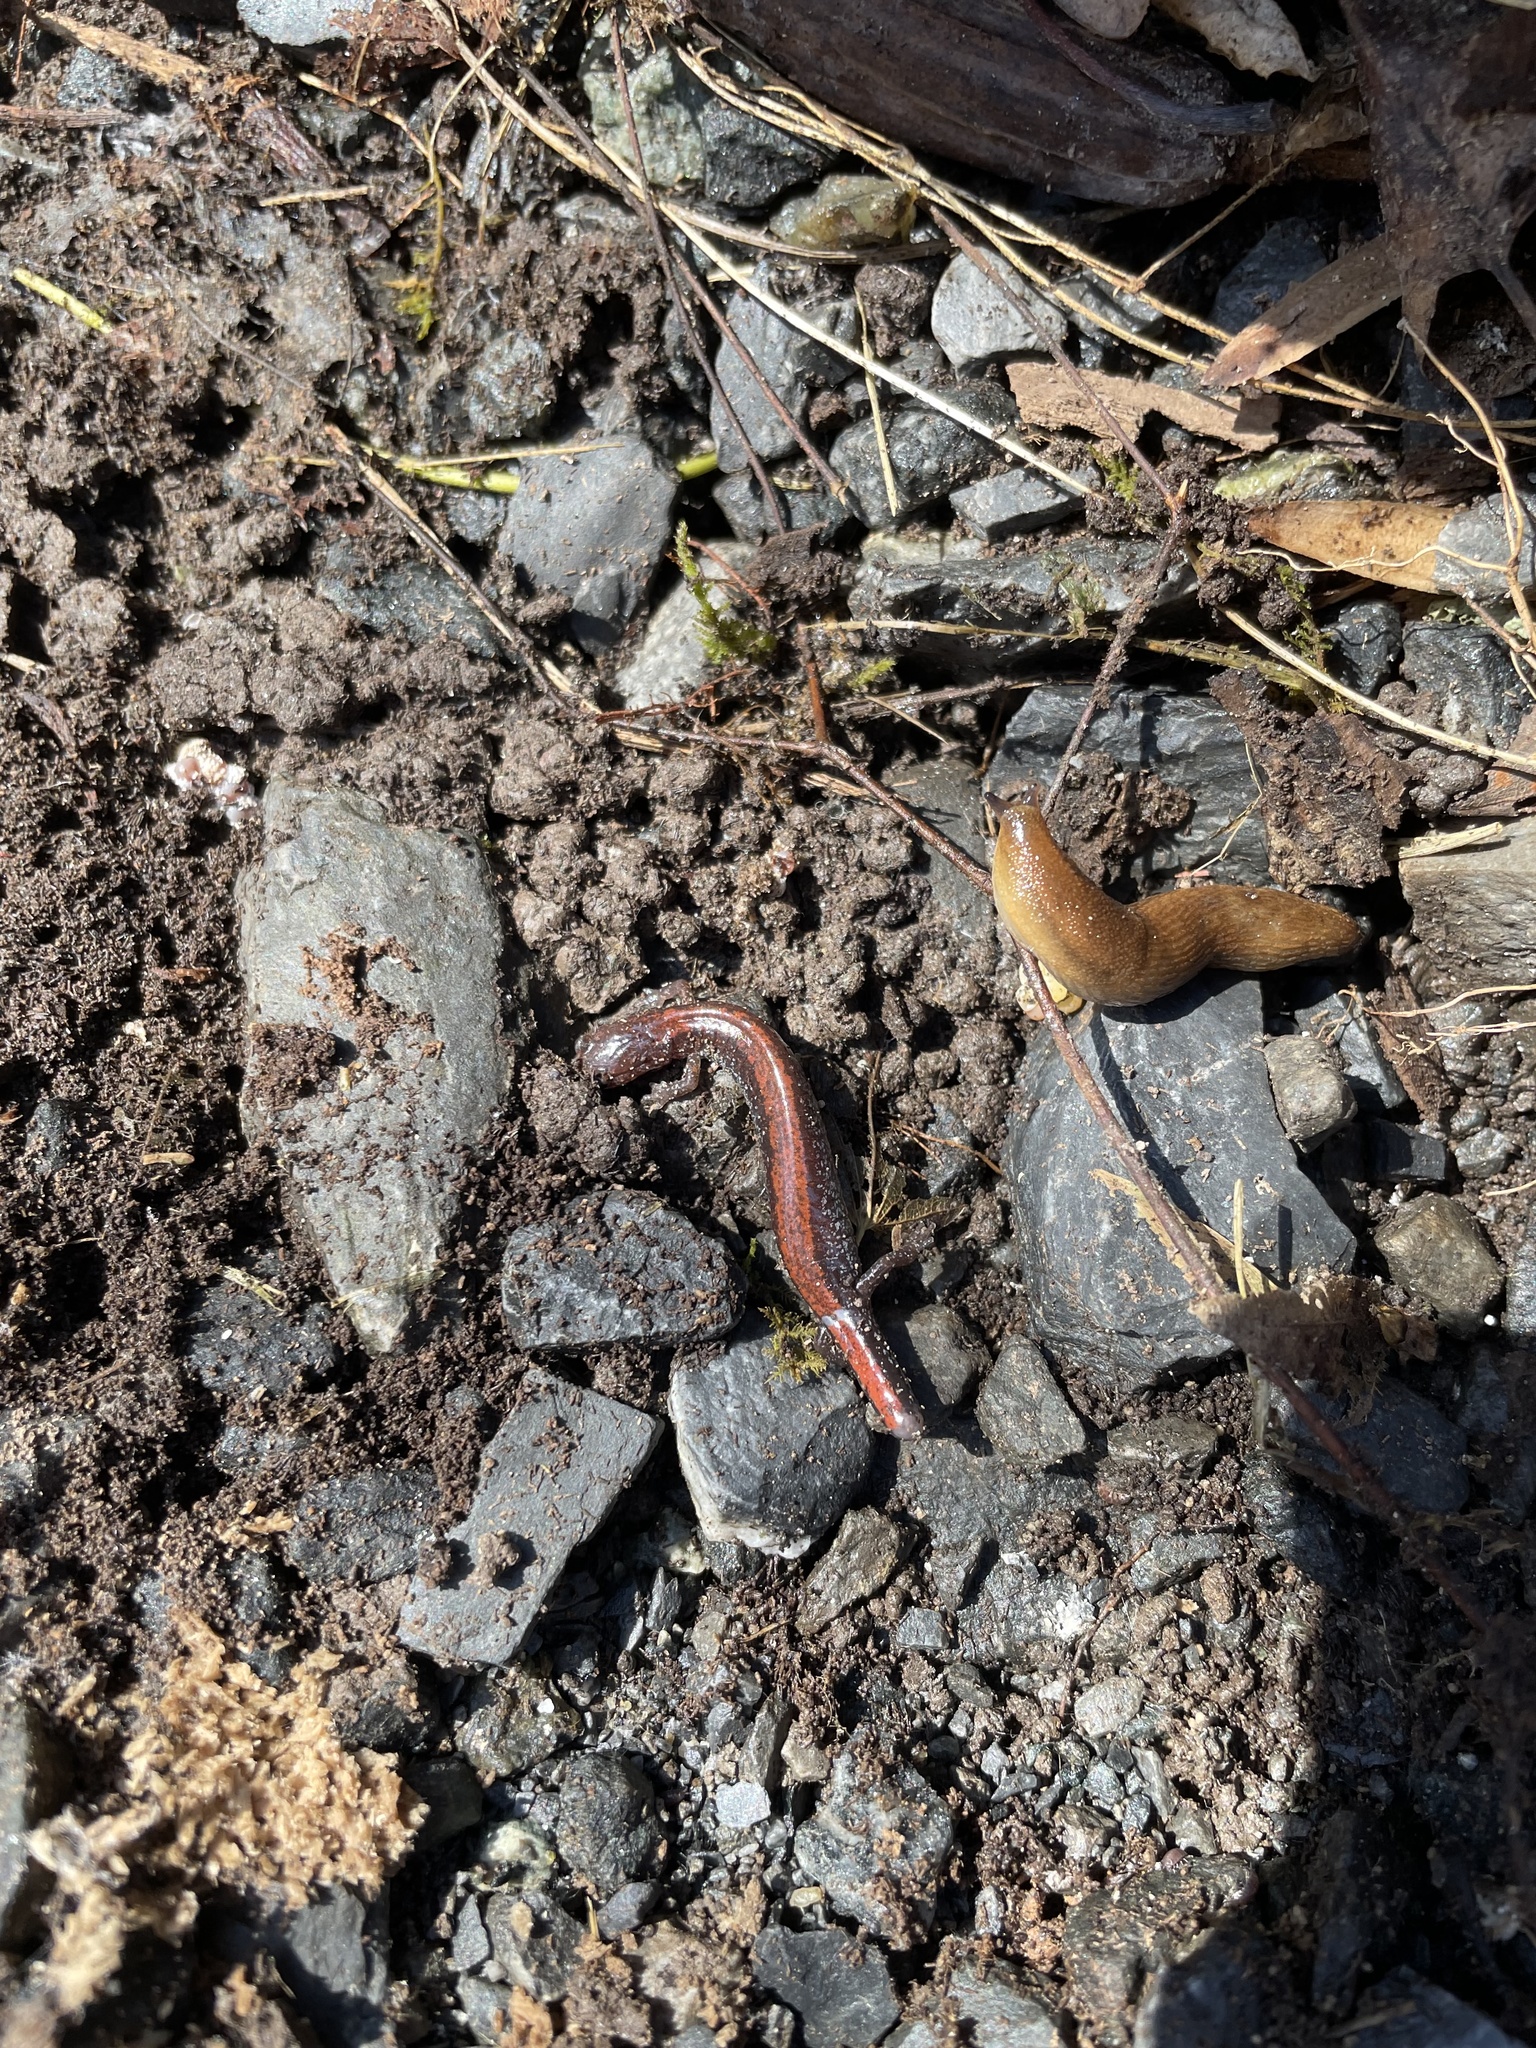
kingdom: Animalia
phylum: Chordata
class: Amphibia
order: Caudata
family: Plethodontidae
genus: Plethodon
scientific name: Plethodon cinereus
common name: Redback salamander
